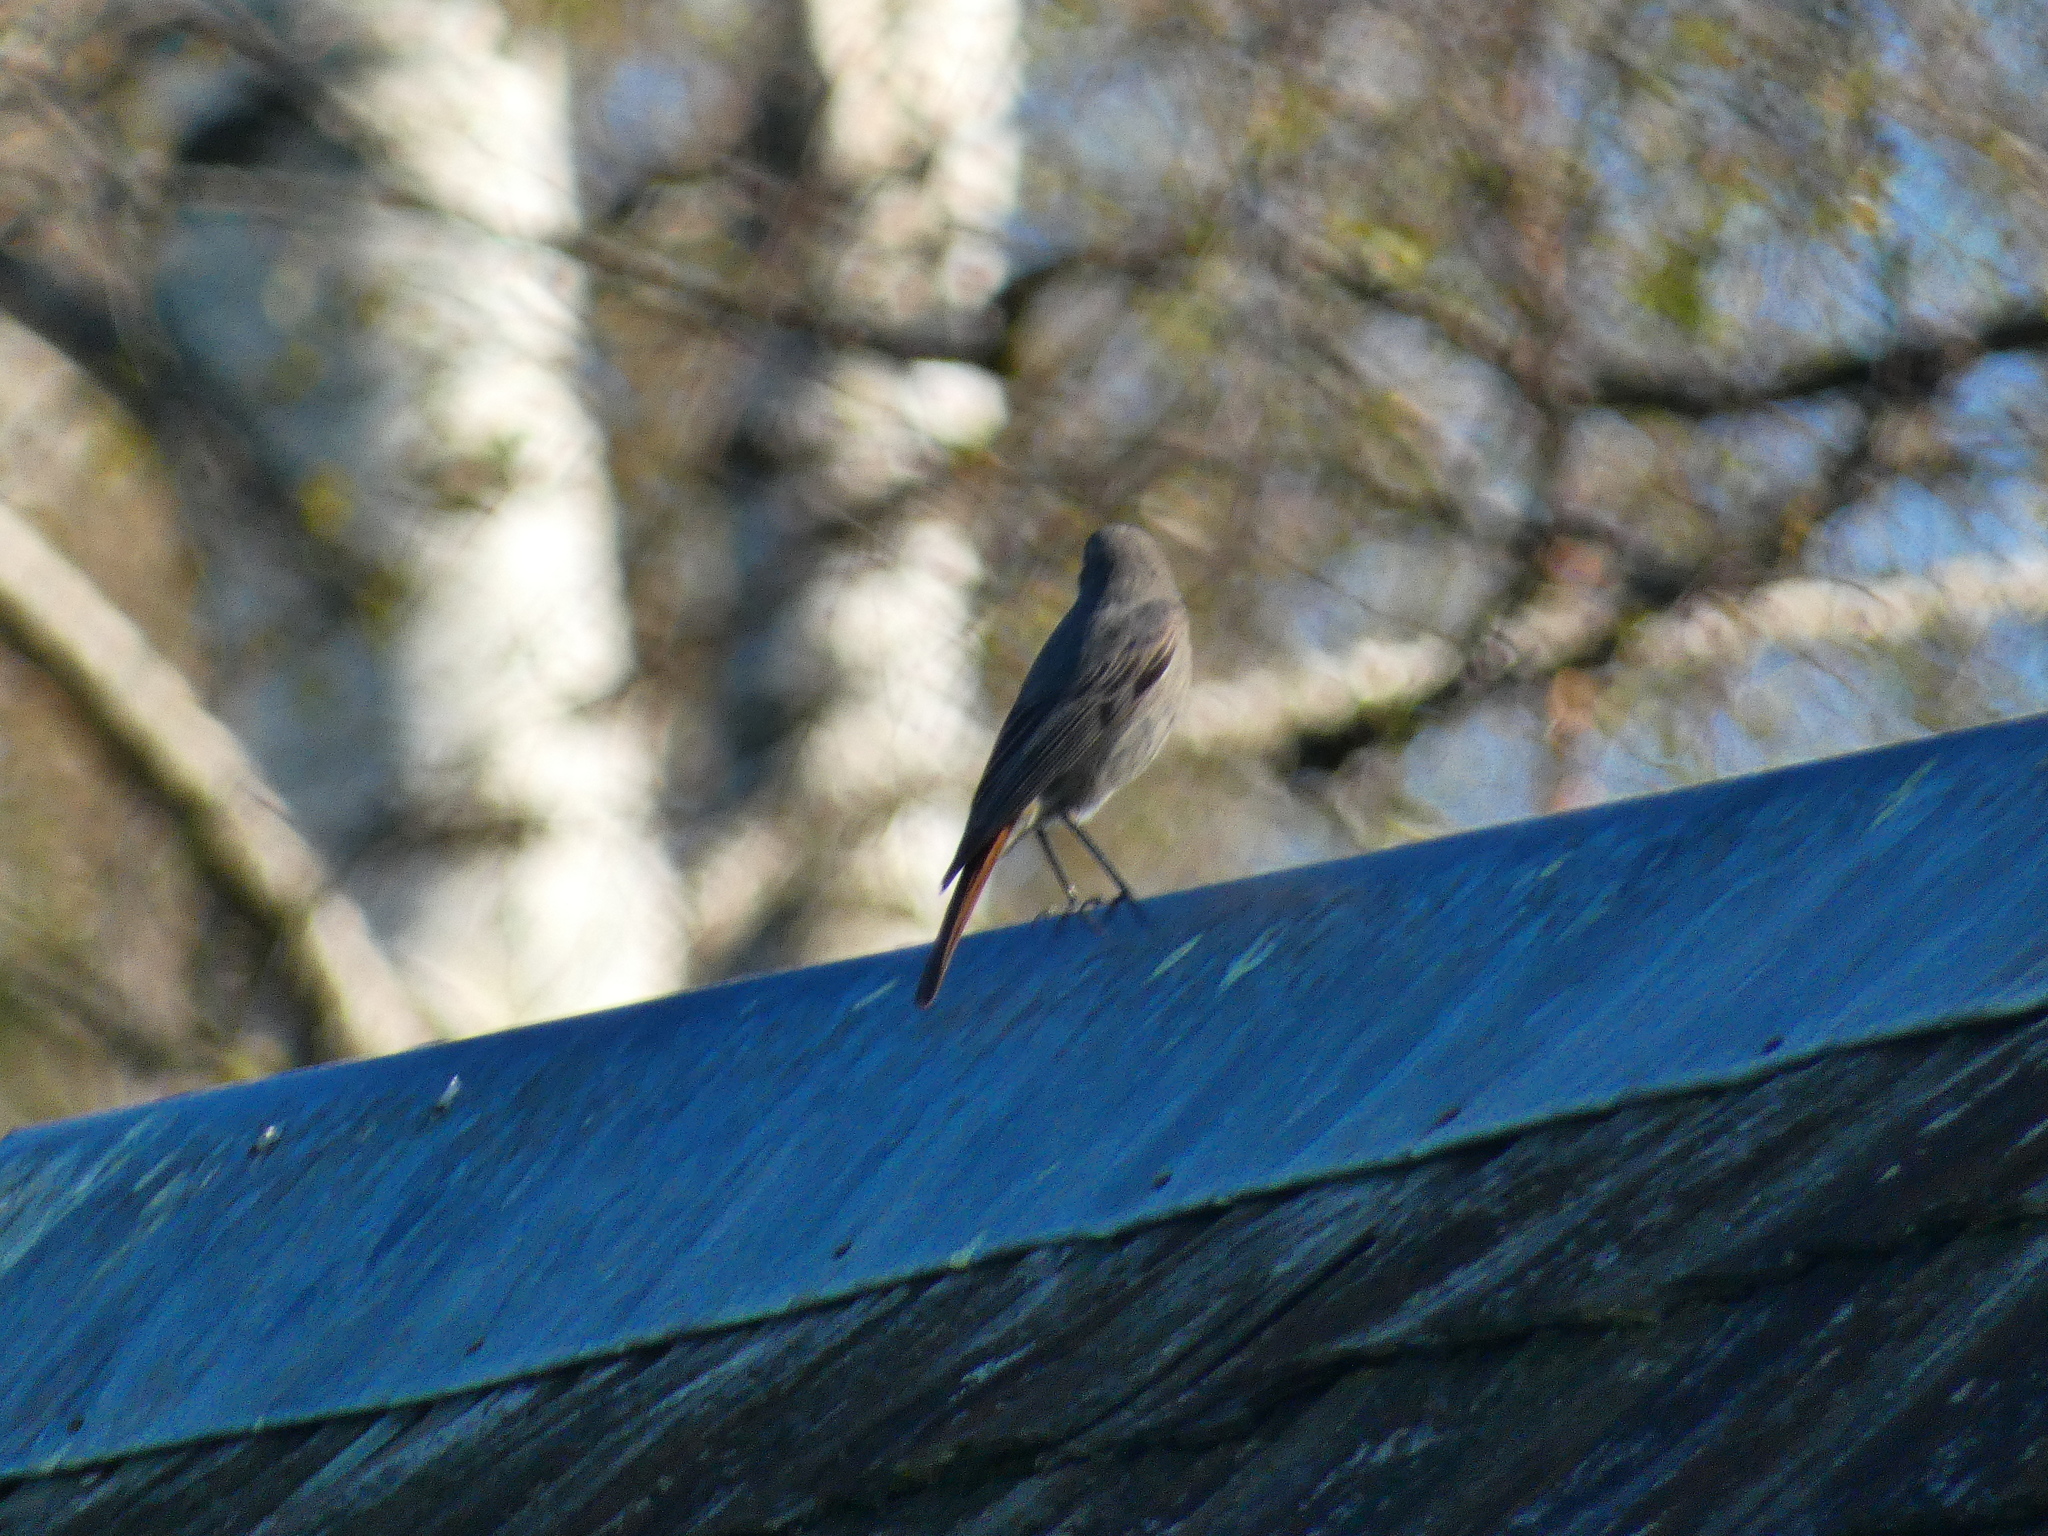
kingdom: Animalia
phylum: Chordata
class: Aves
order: Passeriformes
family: Muscicapidae
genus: Phoenicurus
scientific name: Phoenicurus ochruros
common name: Black redstart
